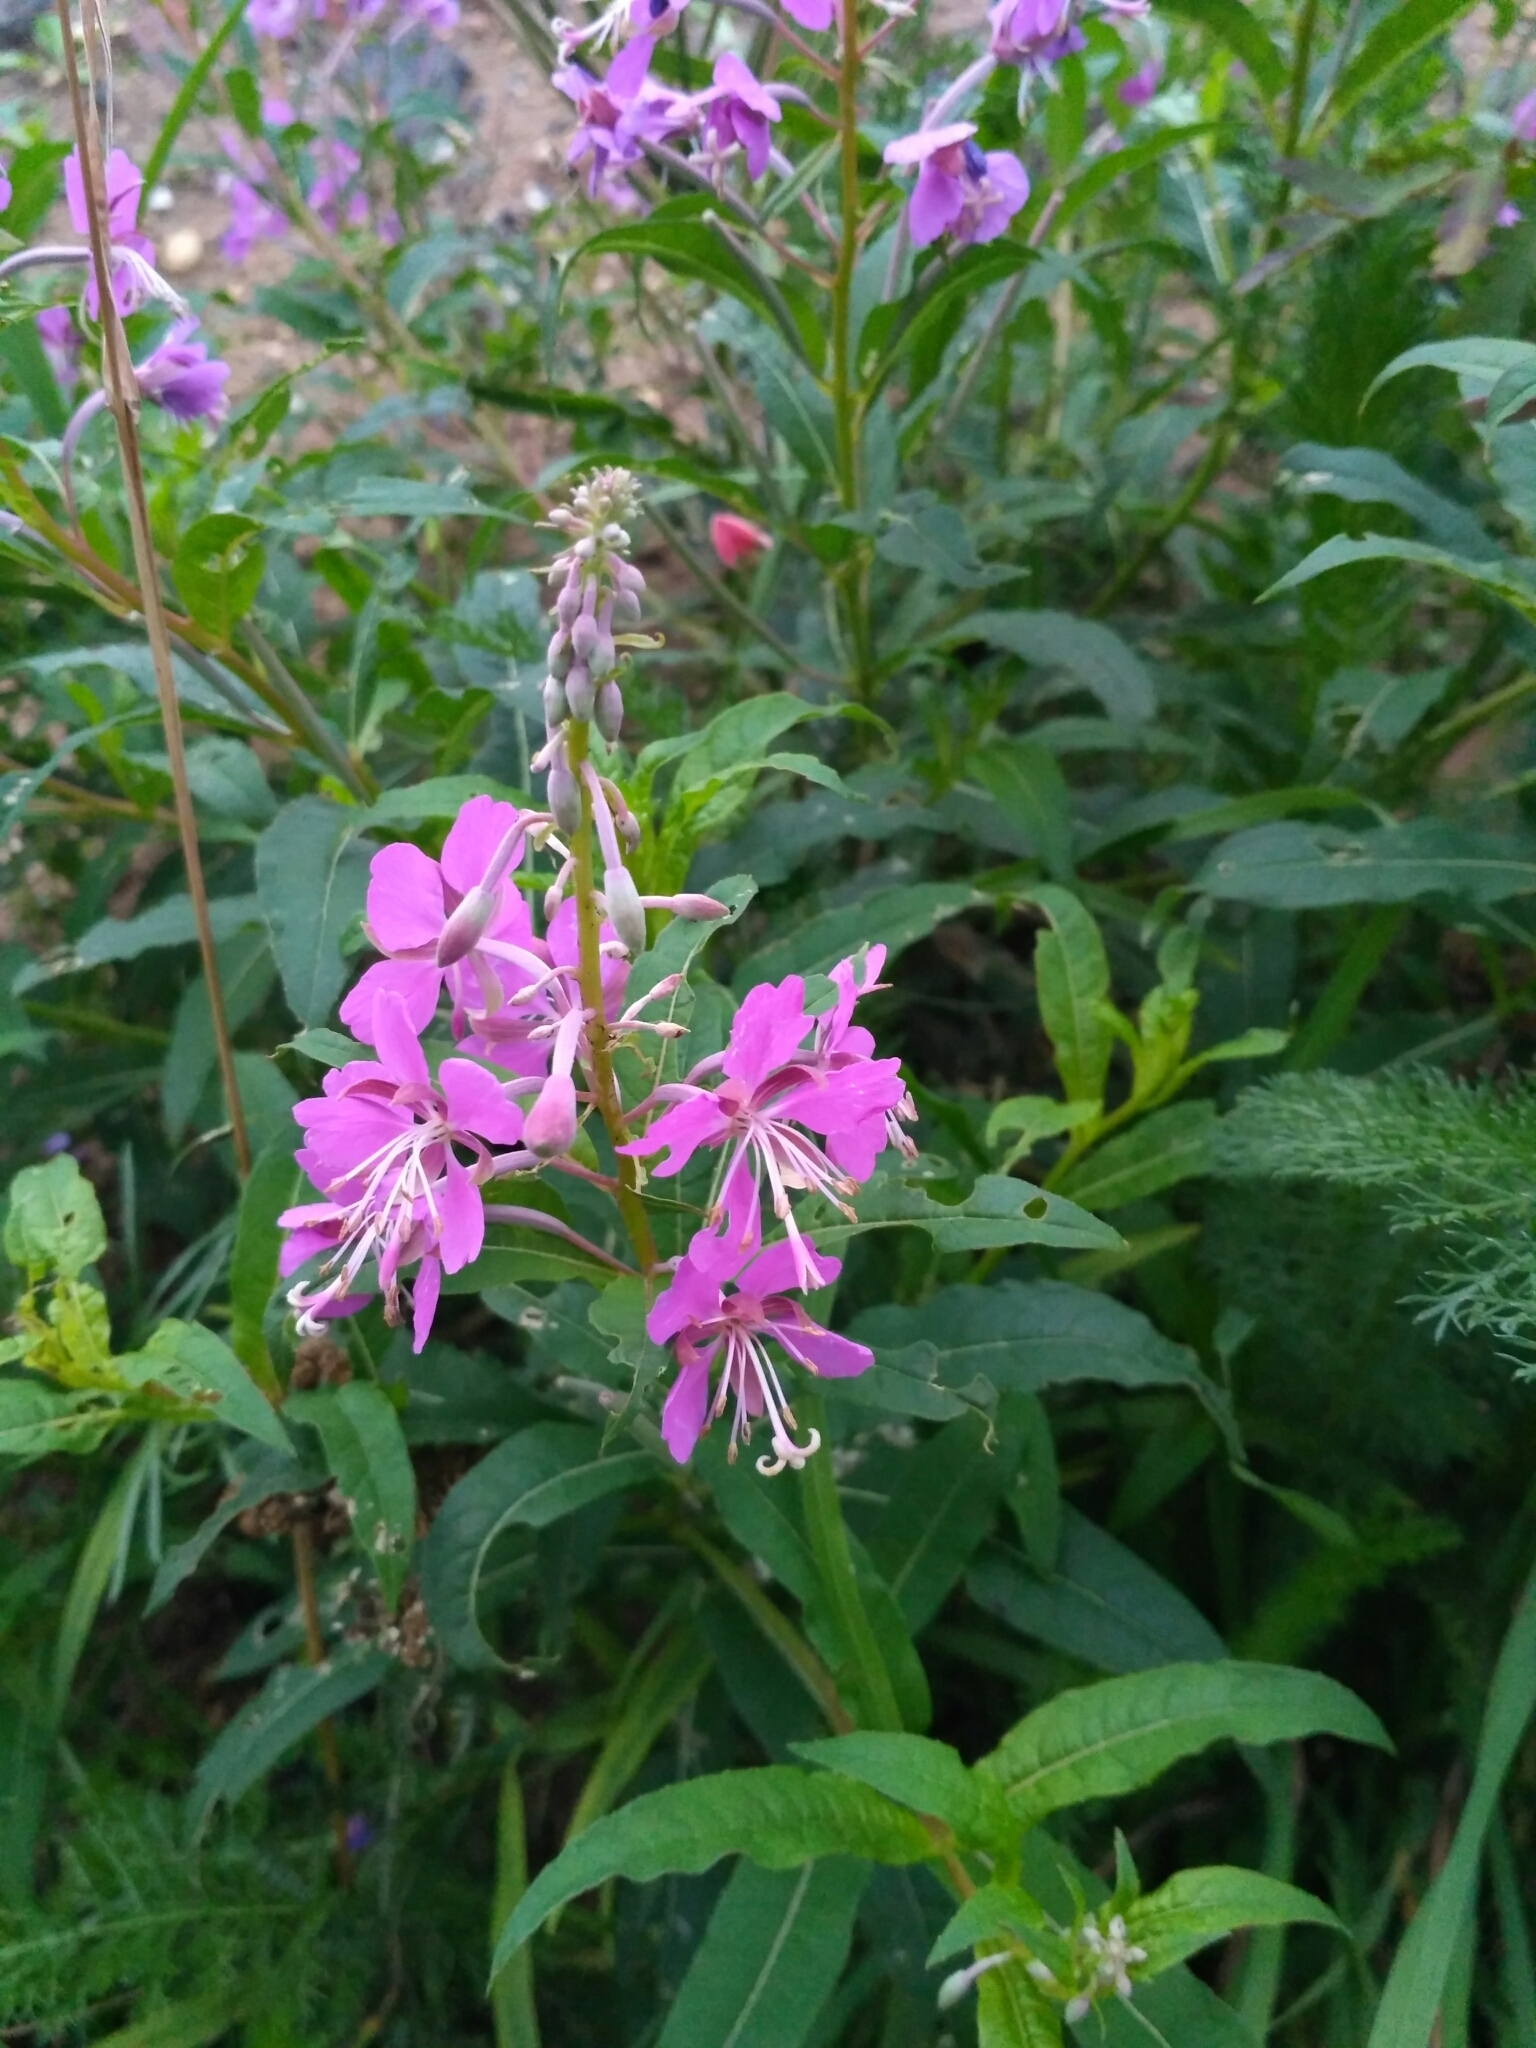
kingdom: Plantae
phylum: Tracheophyta
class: Magnoliopsida
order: Myrtales
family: Onagraceae
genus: Chamaenerion
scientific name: Chamaenerion angustifolium
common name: Fireweed
